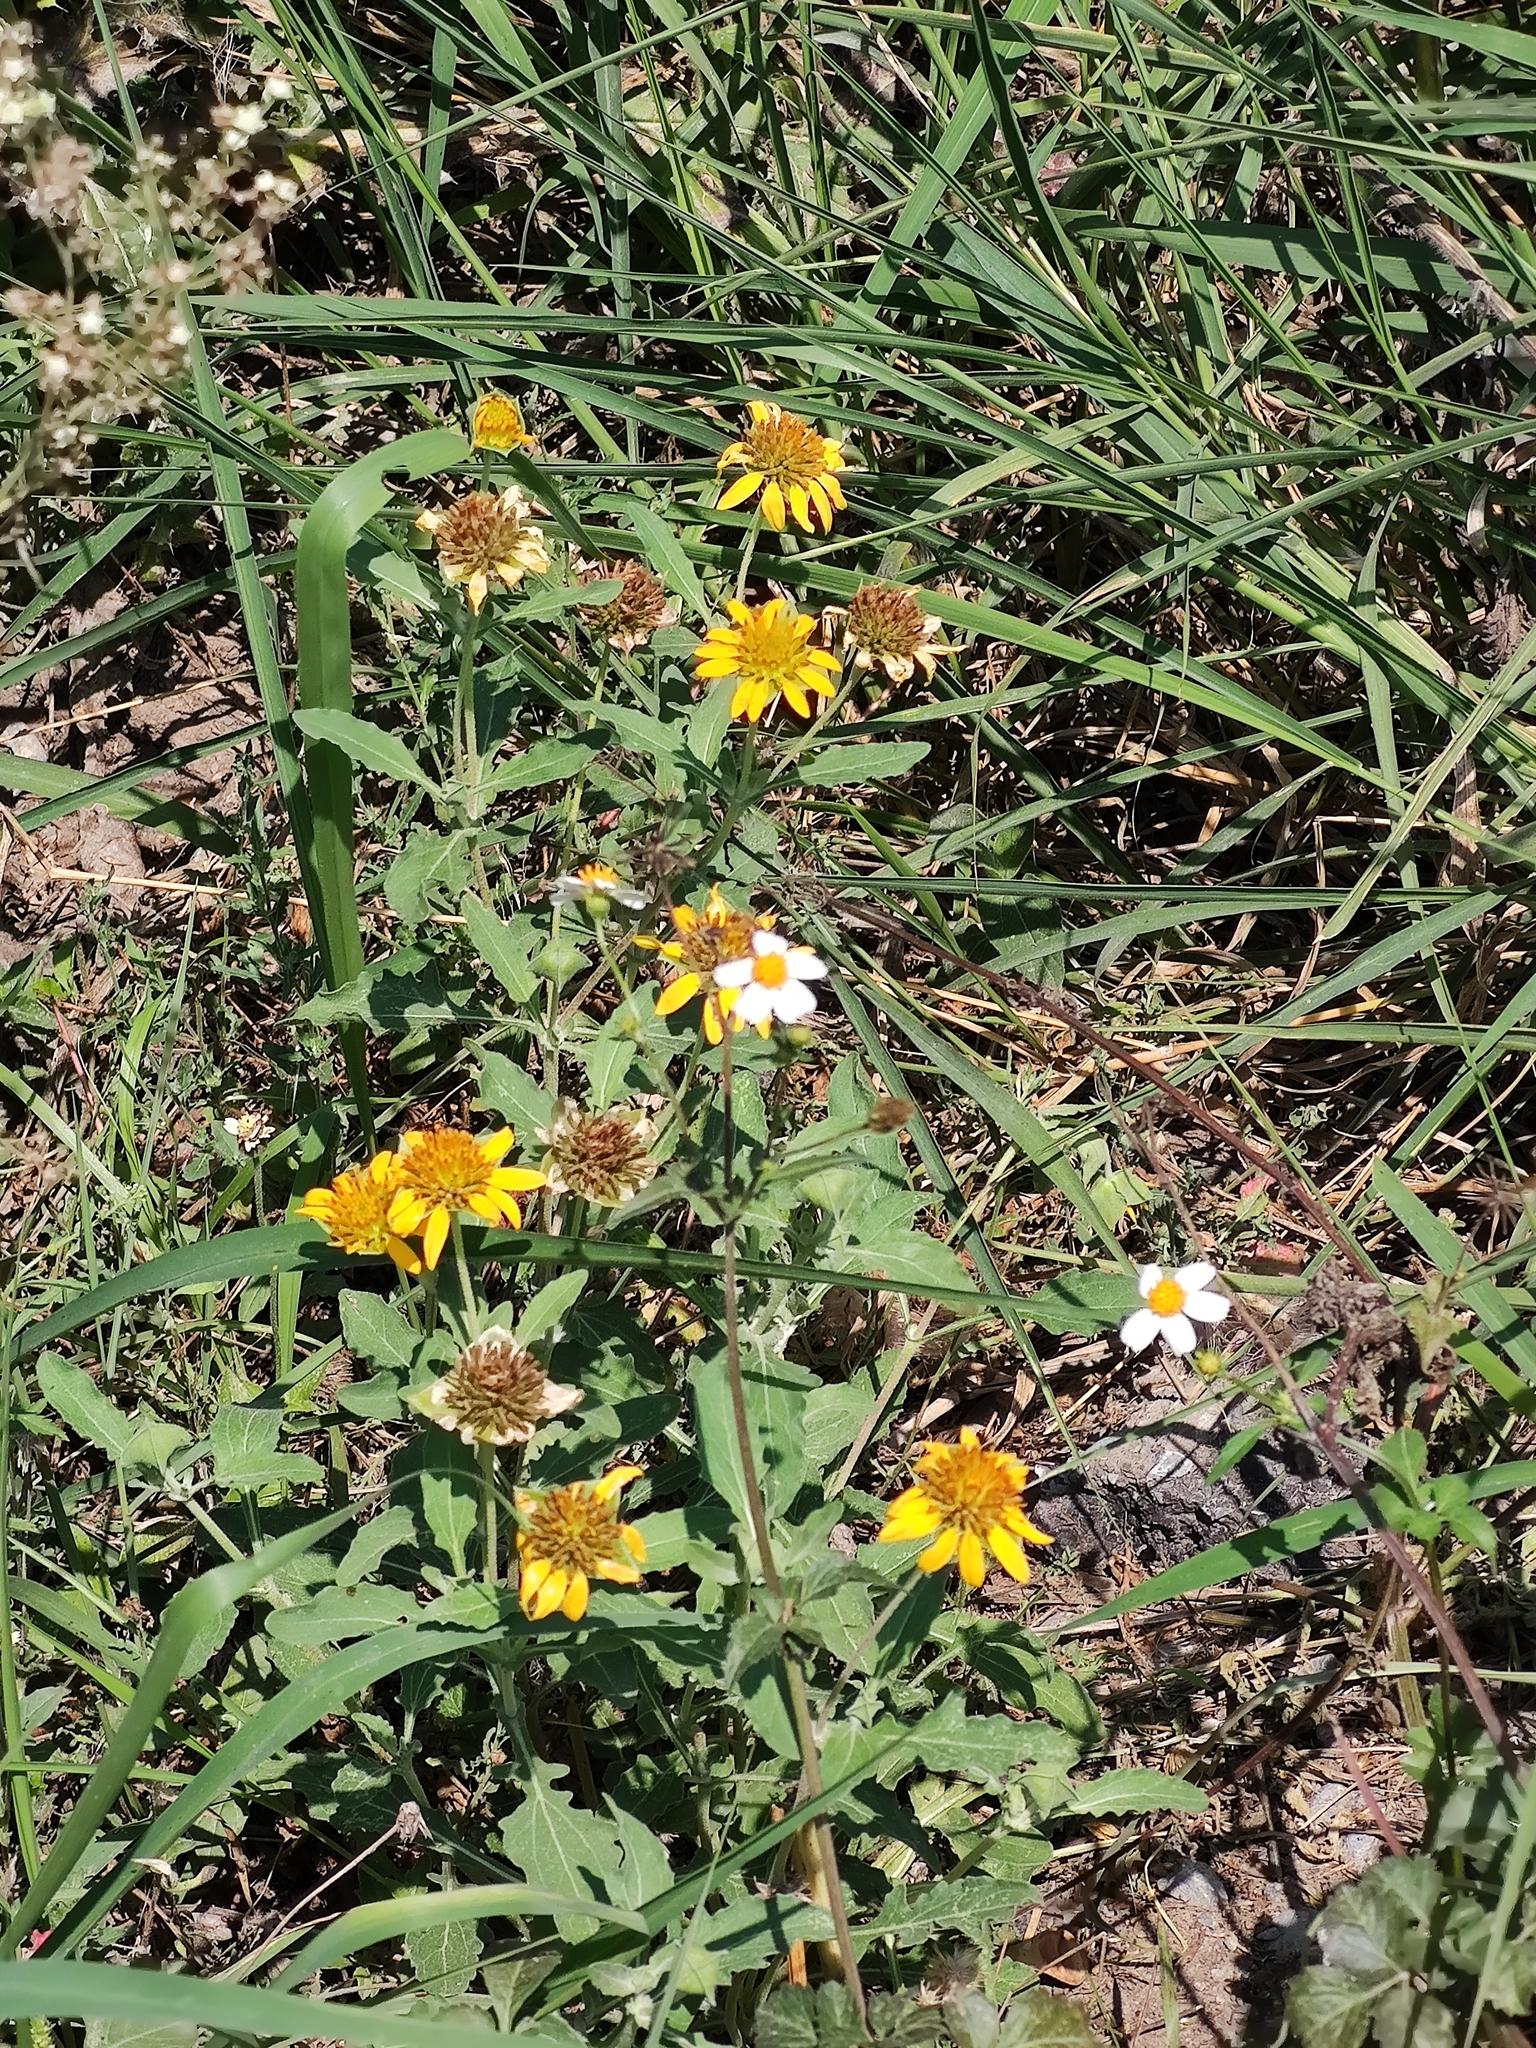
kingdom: Plantae
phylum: Tracheophyta
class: Magnoliopsida
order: Asterales
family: Asteraceae
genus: Tetragonotheca
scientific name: Tetragonotheca texana
